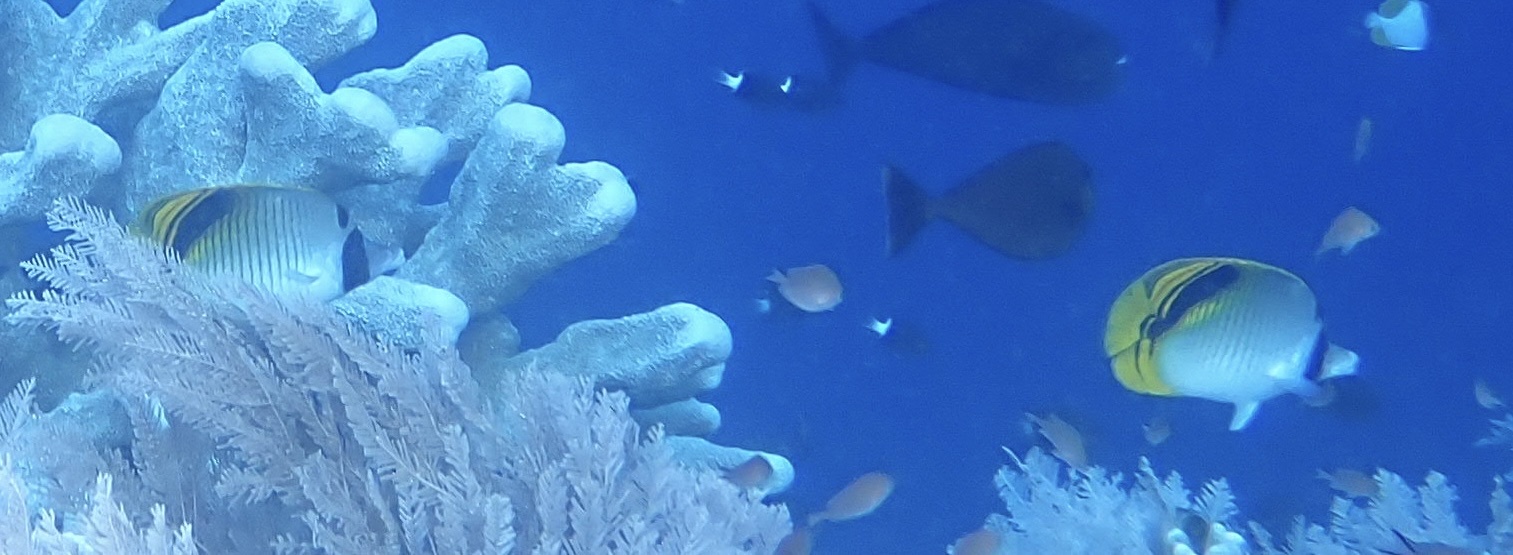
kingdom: Animalia
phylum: Chordata
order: Perciformes
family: Chaetodontidae
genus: Chaetodon
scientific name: Chaetodon oxycephalus
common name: Spot-nape butterflyfish
